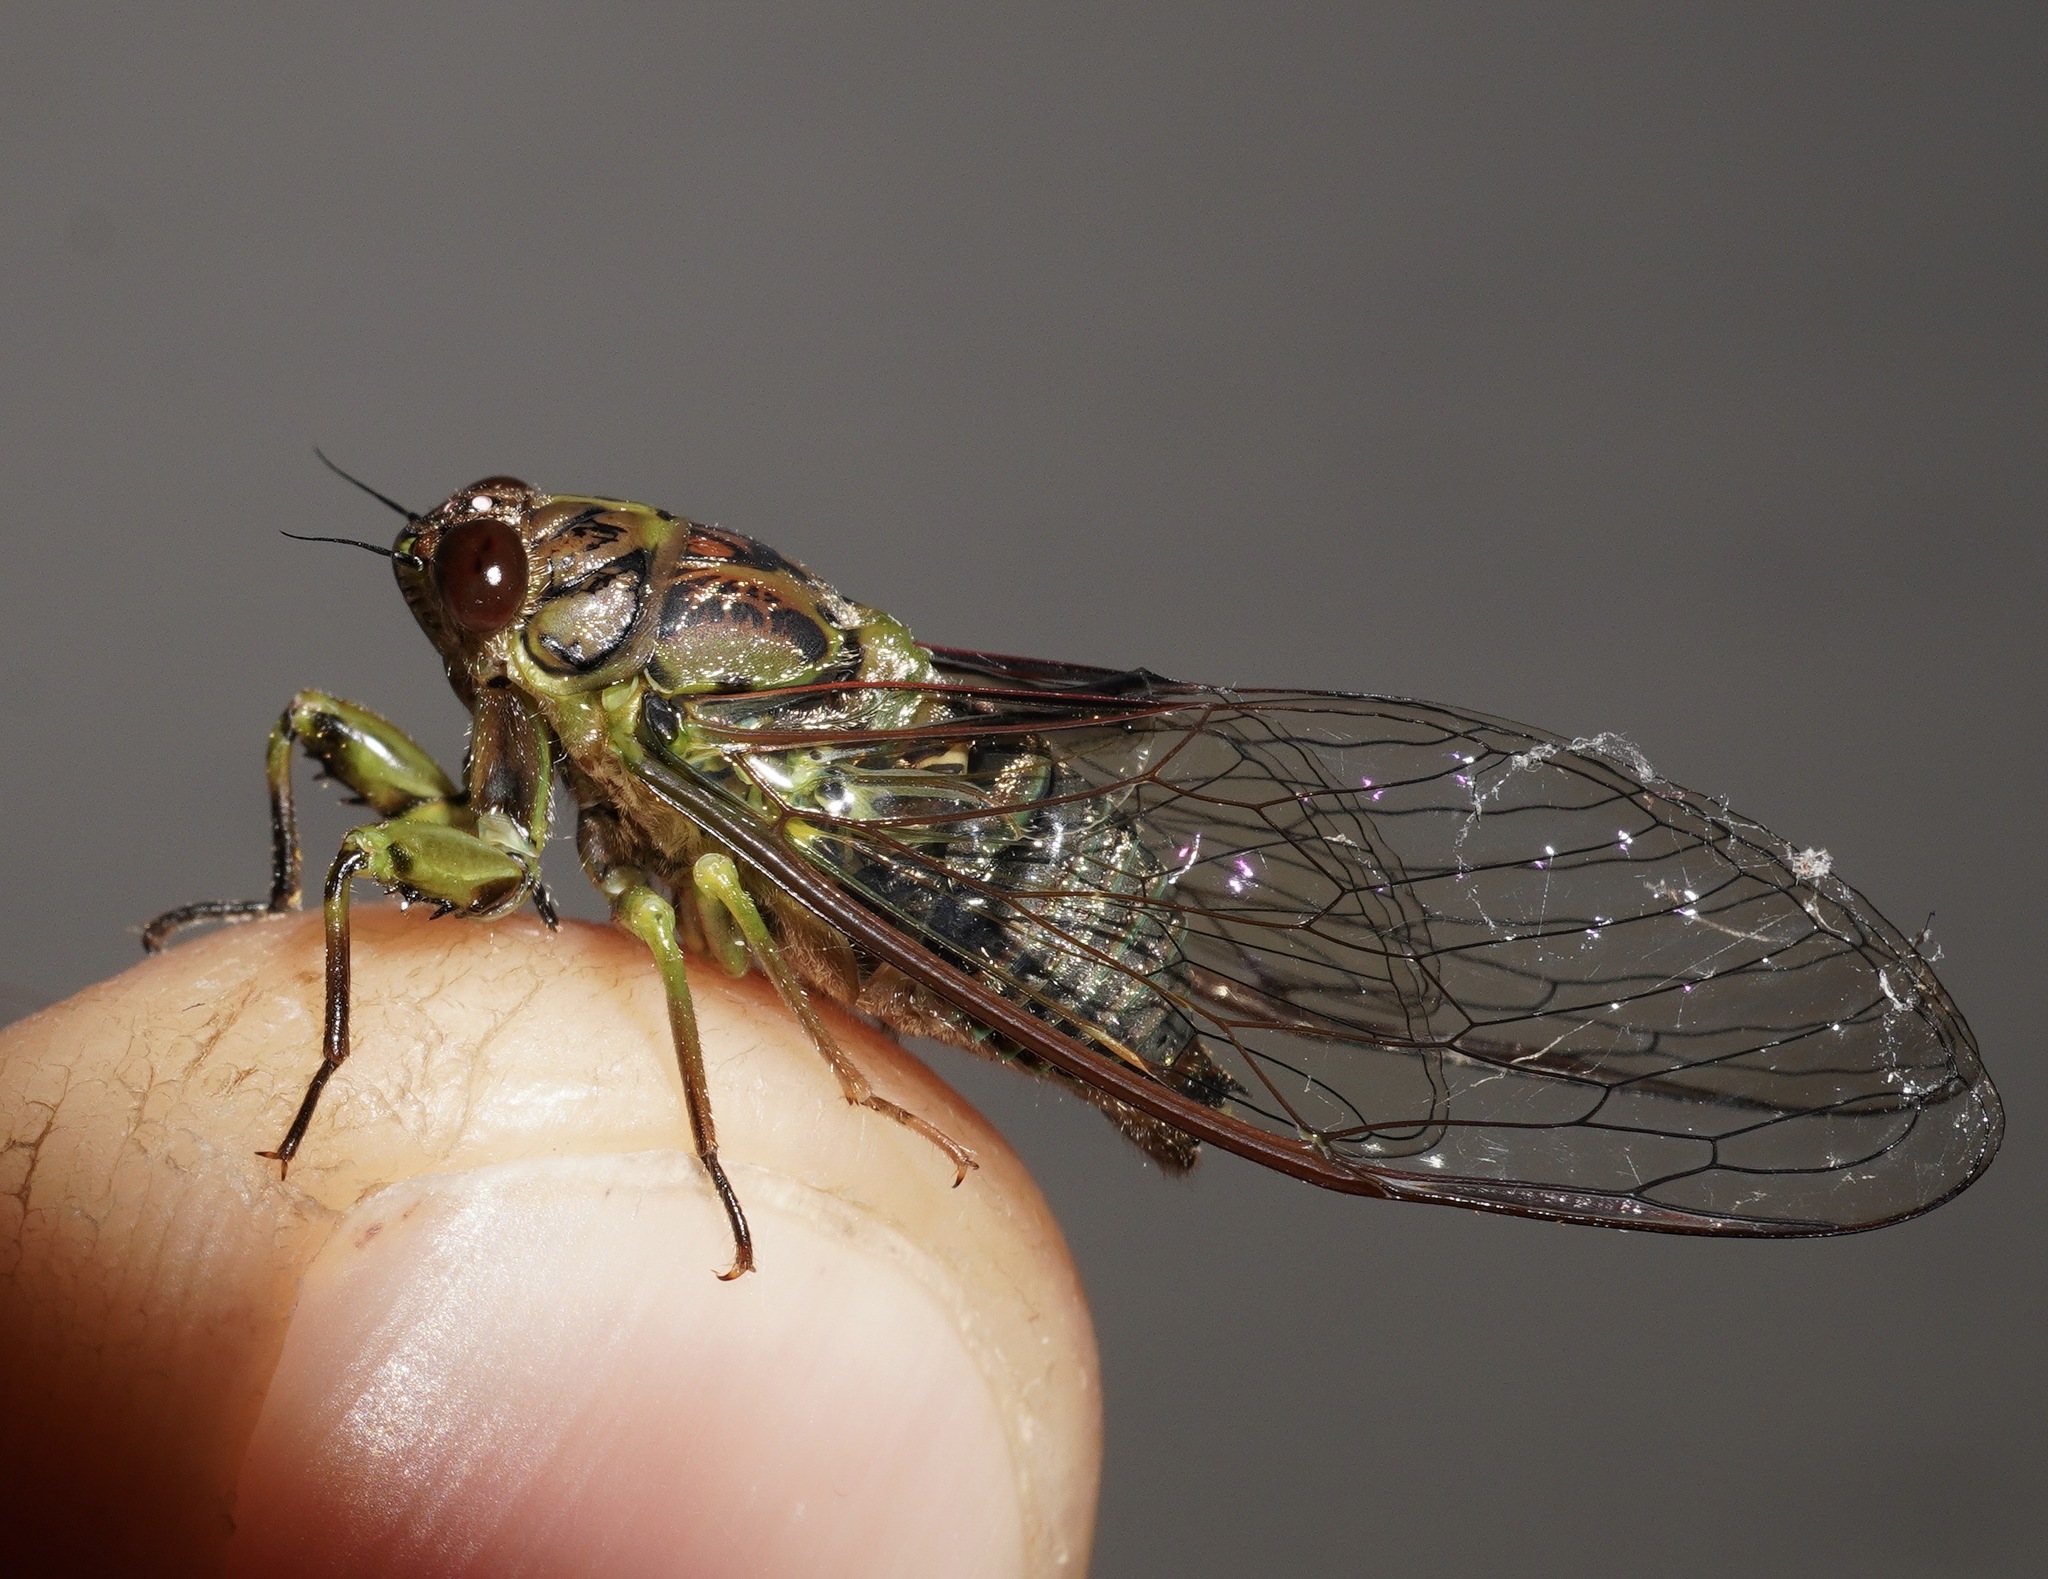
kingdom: Animalia
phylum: Arthropoda
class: Insecta
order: Hemiptera
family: Cicadidae
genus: Kikihia
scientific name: Kikihia scutellaris
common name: Lesser bronze cicada
